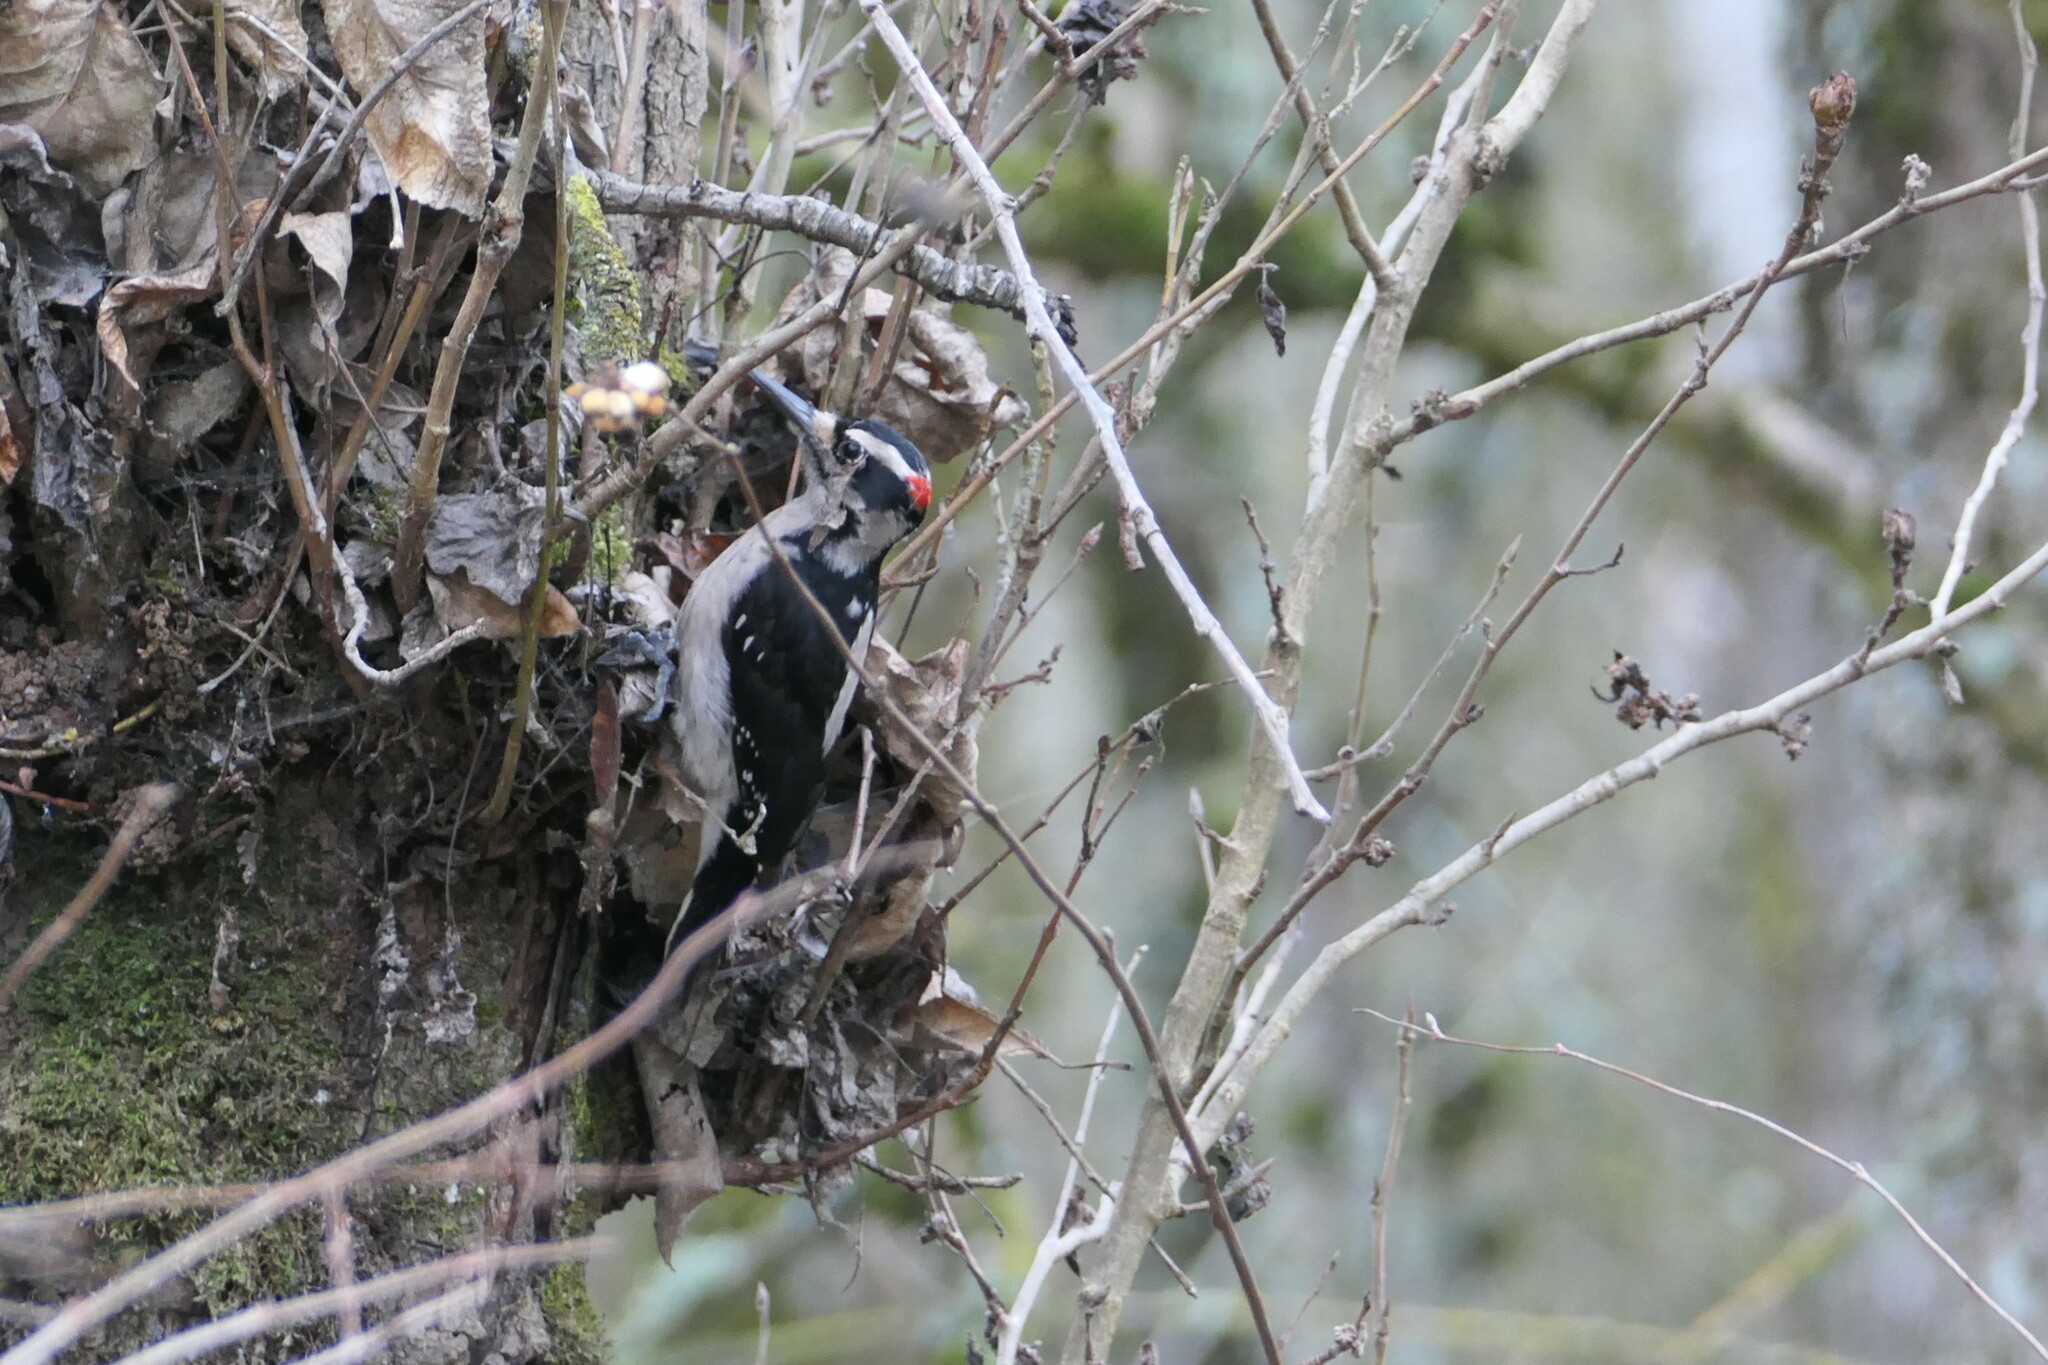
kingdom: Animalia
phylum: Chordata
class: Aves
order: Piciformes
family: Picidae
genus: Leuconotopicus
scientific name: Leuconotopicus villosus
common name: Hairy woodpecker
